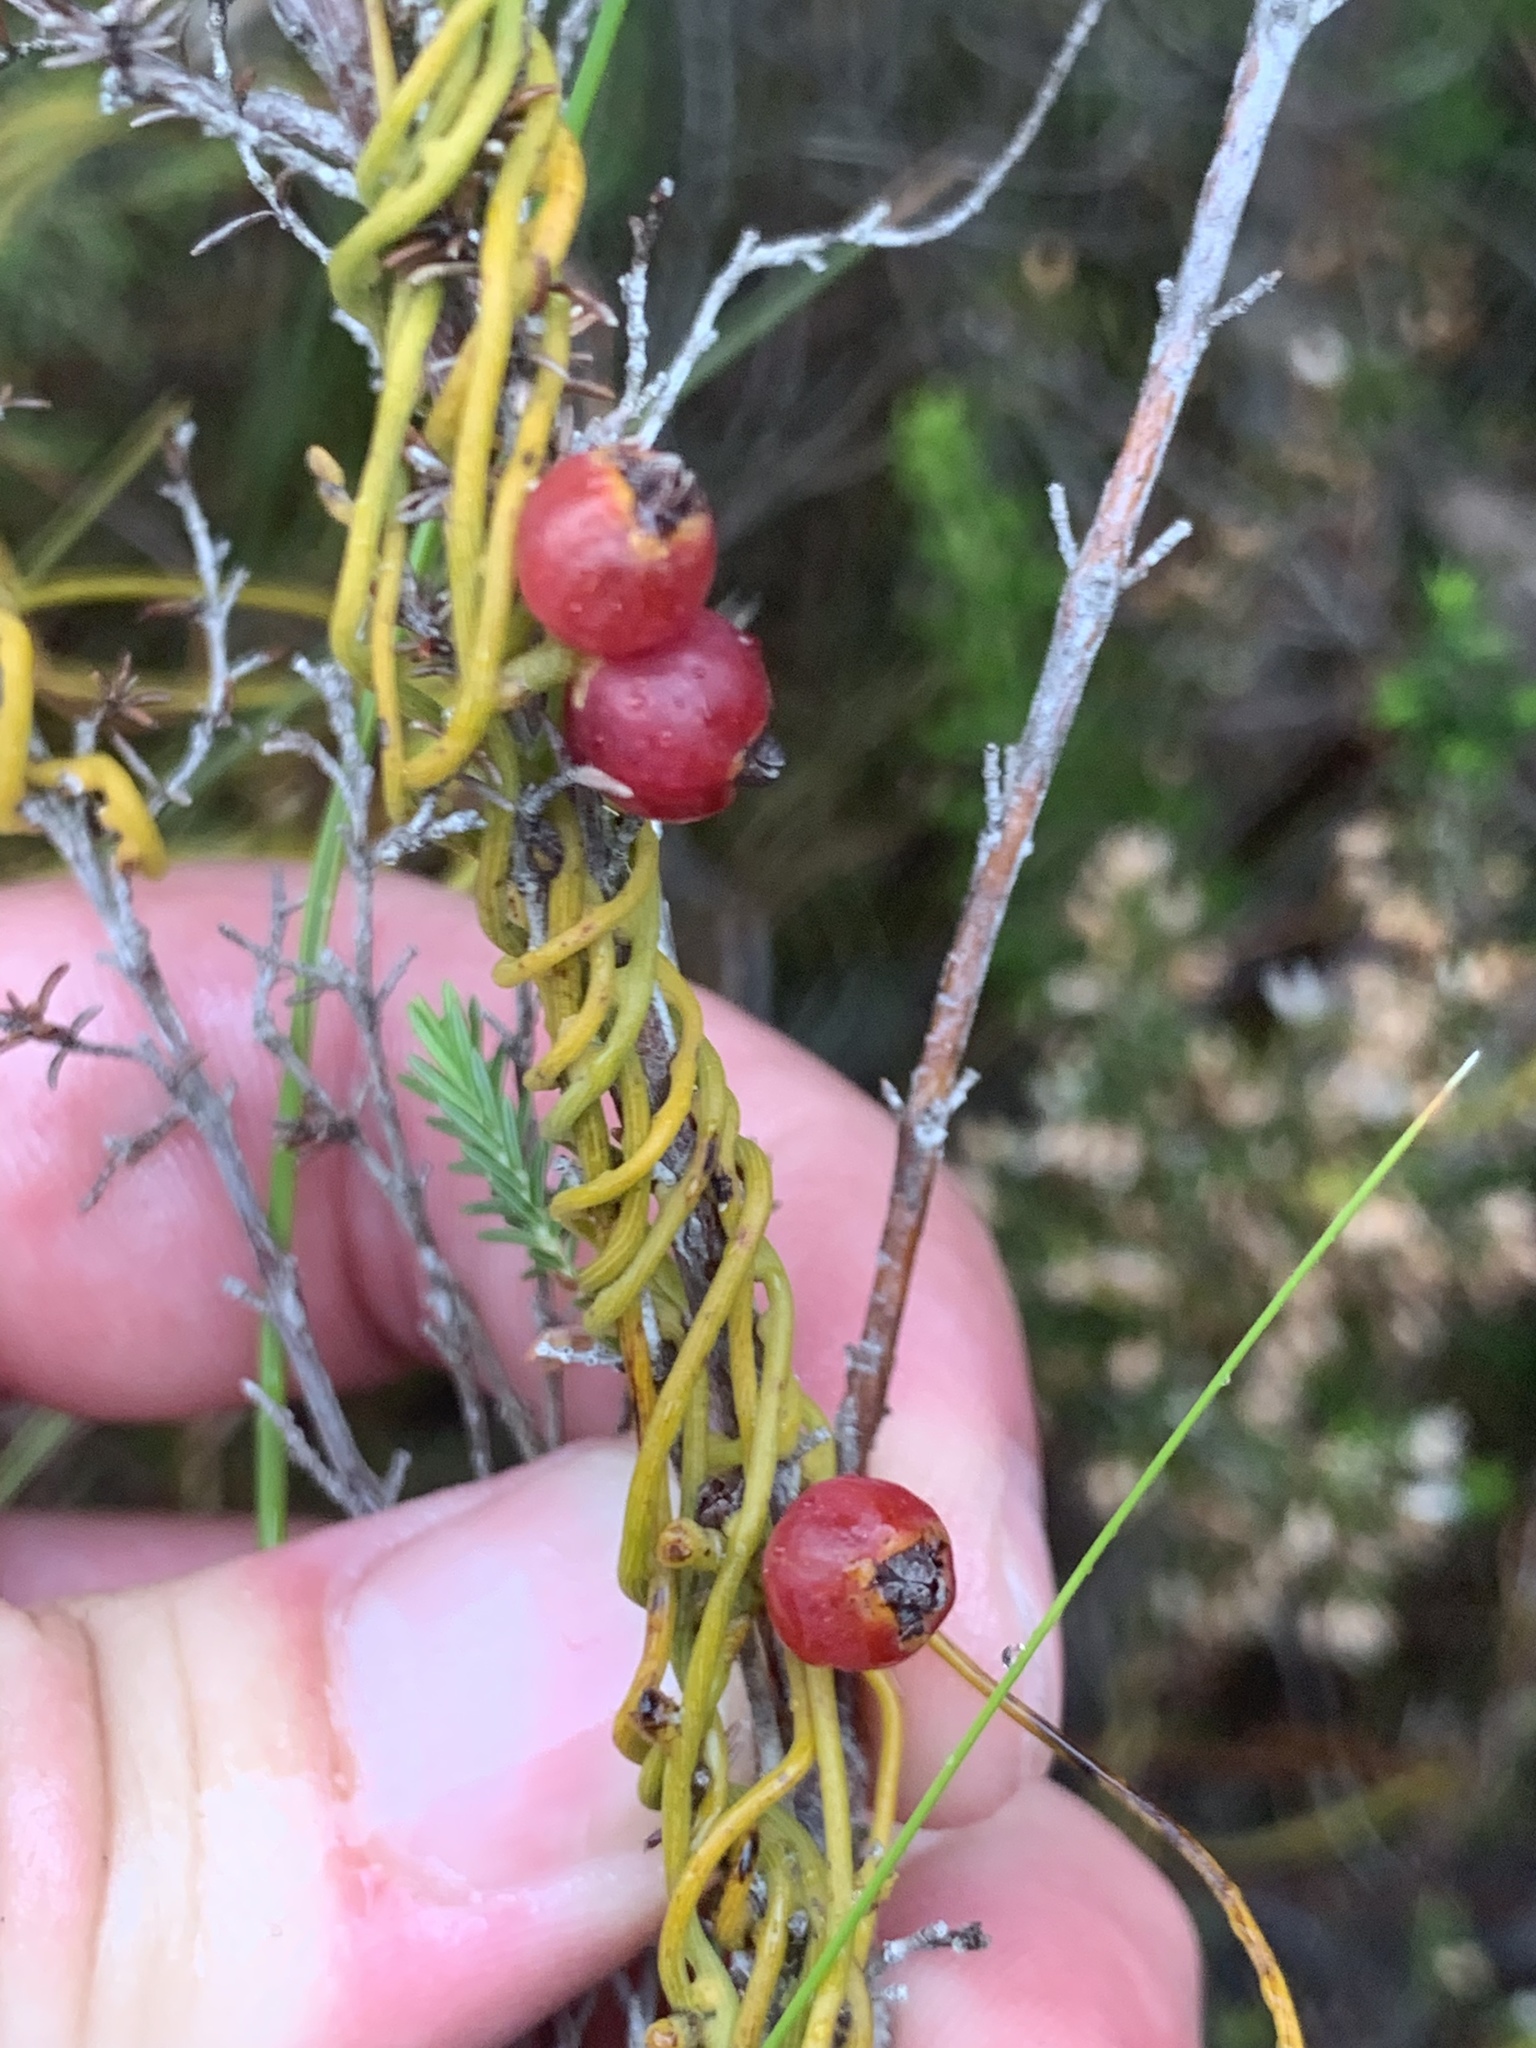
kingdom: Plantae
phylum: Tracheophyta
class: Magnoliopsida
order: Laurales
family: Lauraceae
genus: Cassytha
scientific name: Cassytha ciliolata
